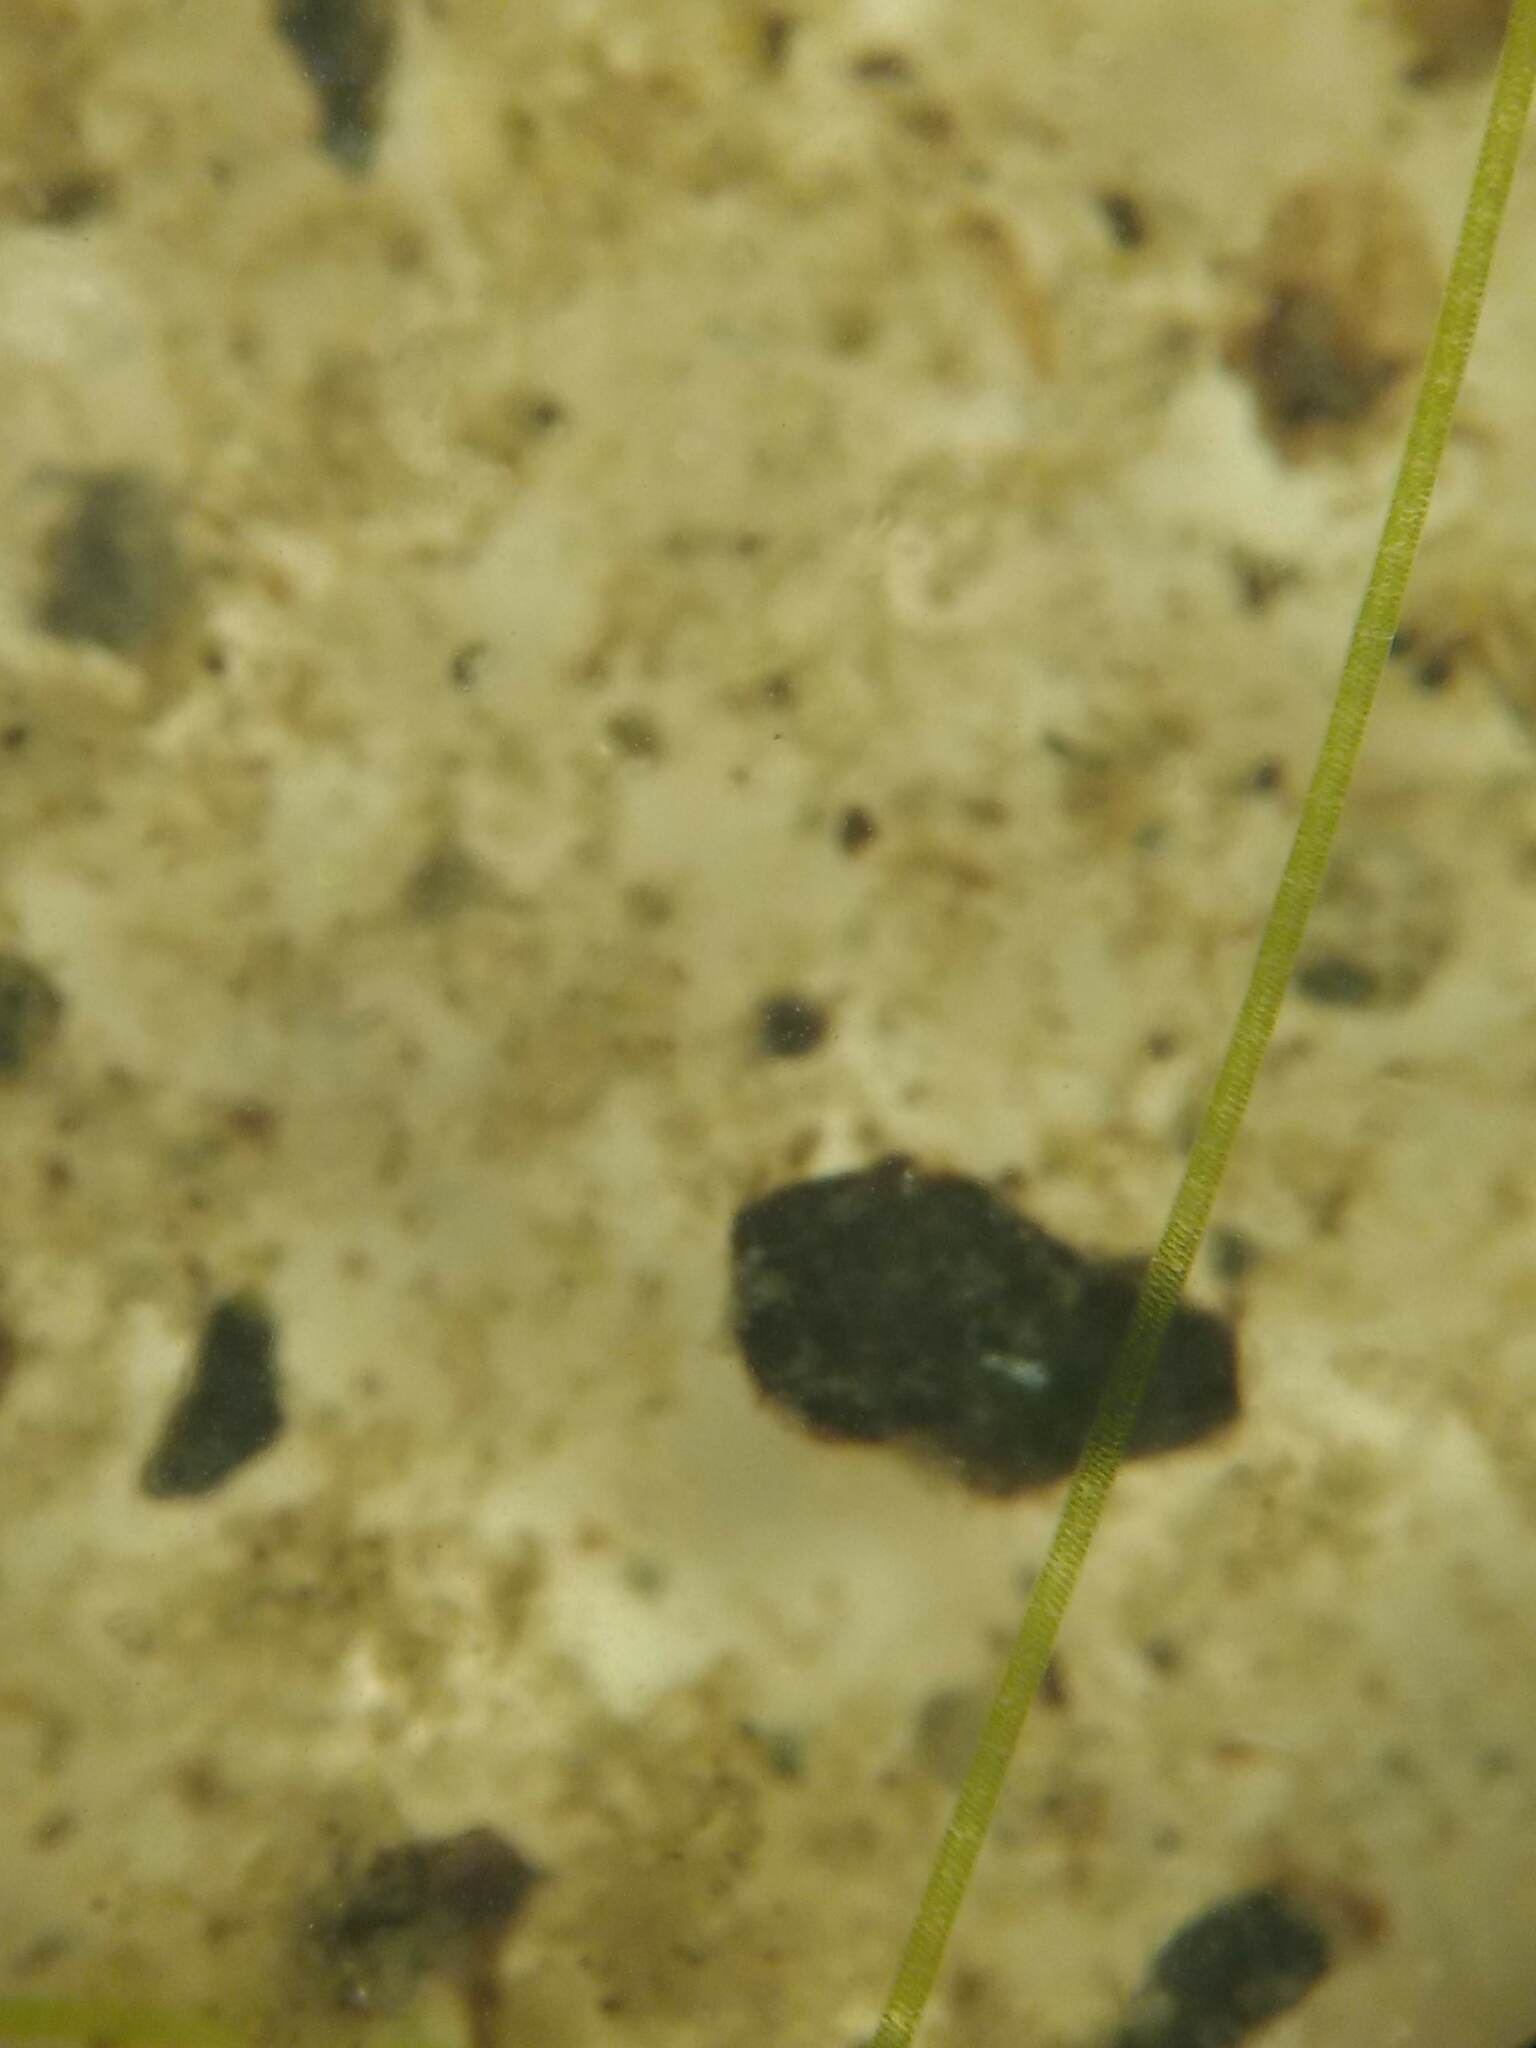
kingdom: Plantae
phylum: Charophyta
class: Zygnematophyceae
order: Zygnematales
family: Zygnemataceae
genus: Spirogyra
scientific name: Spirogyra
